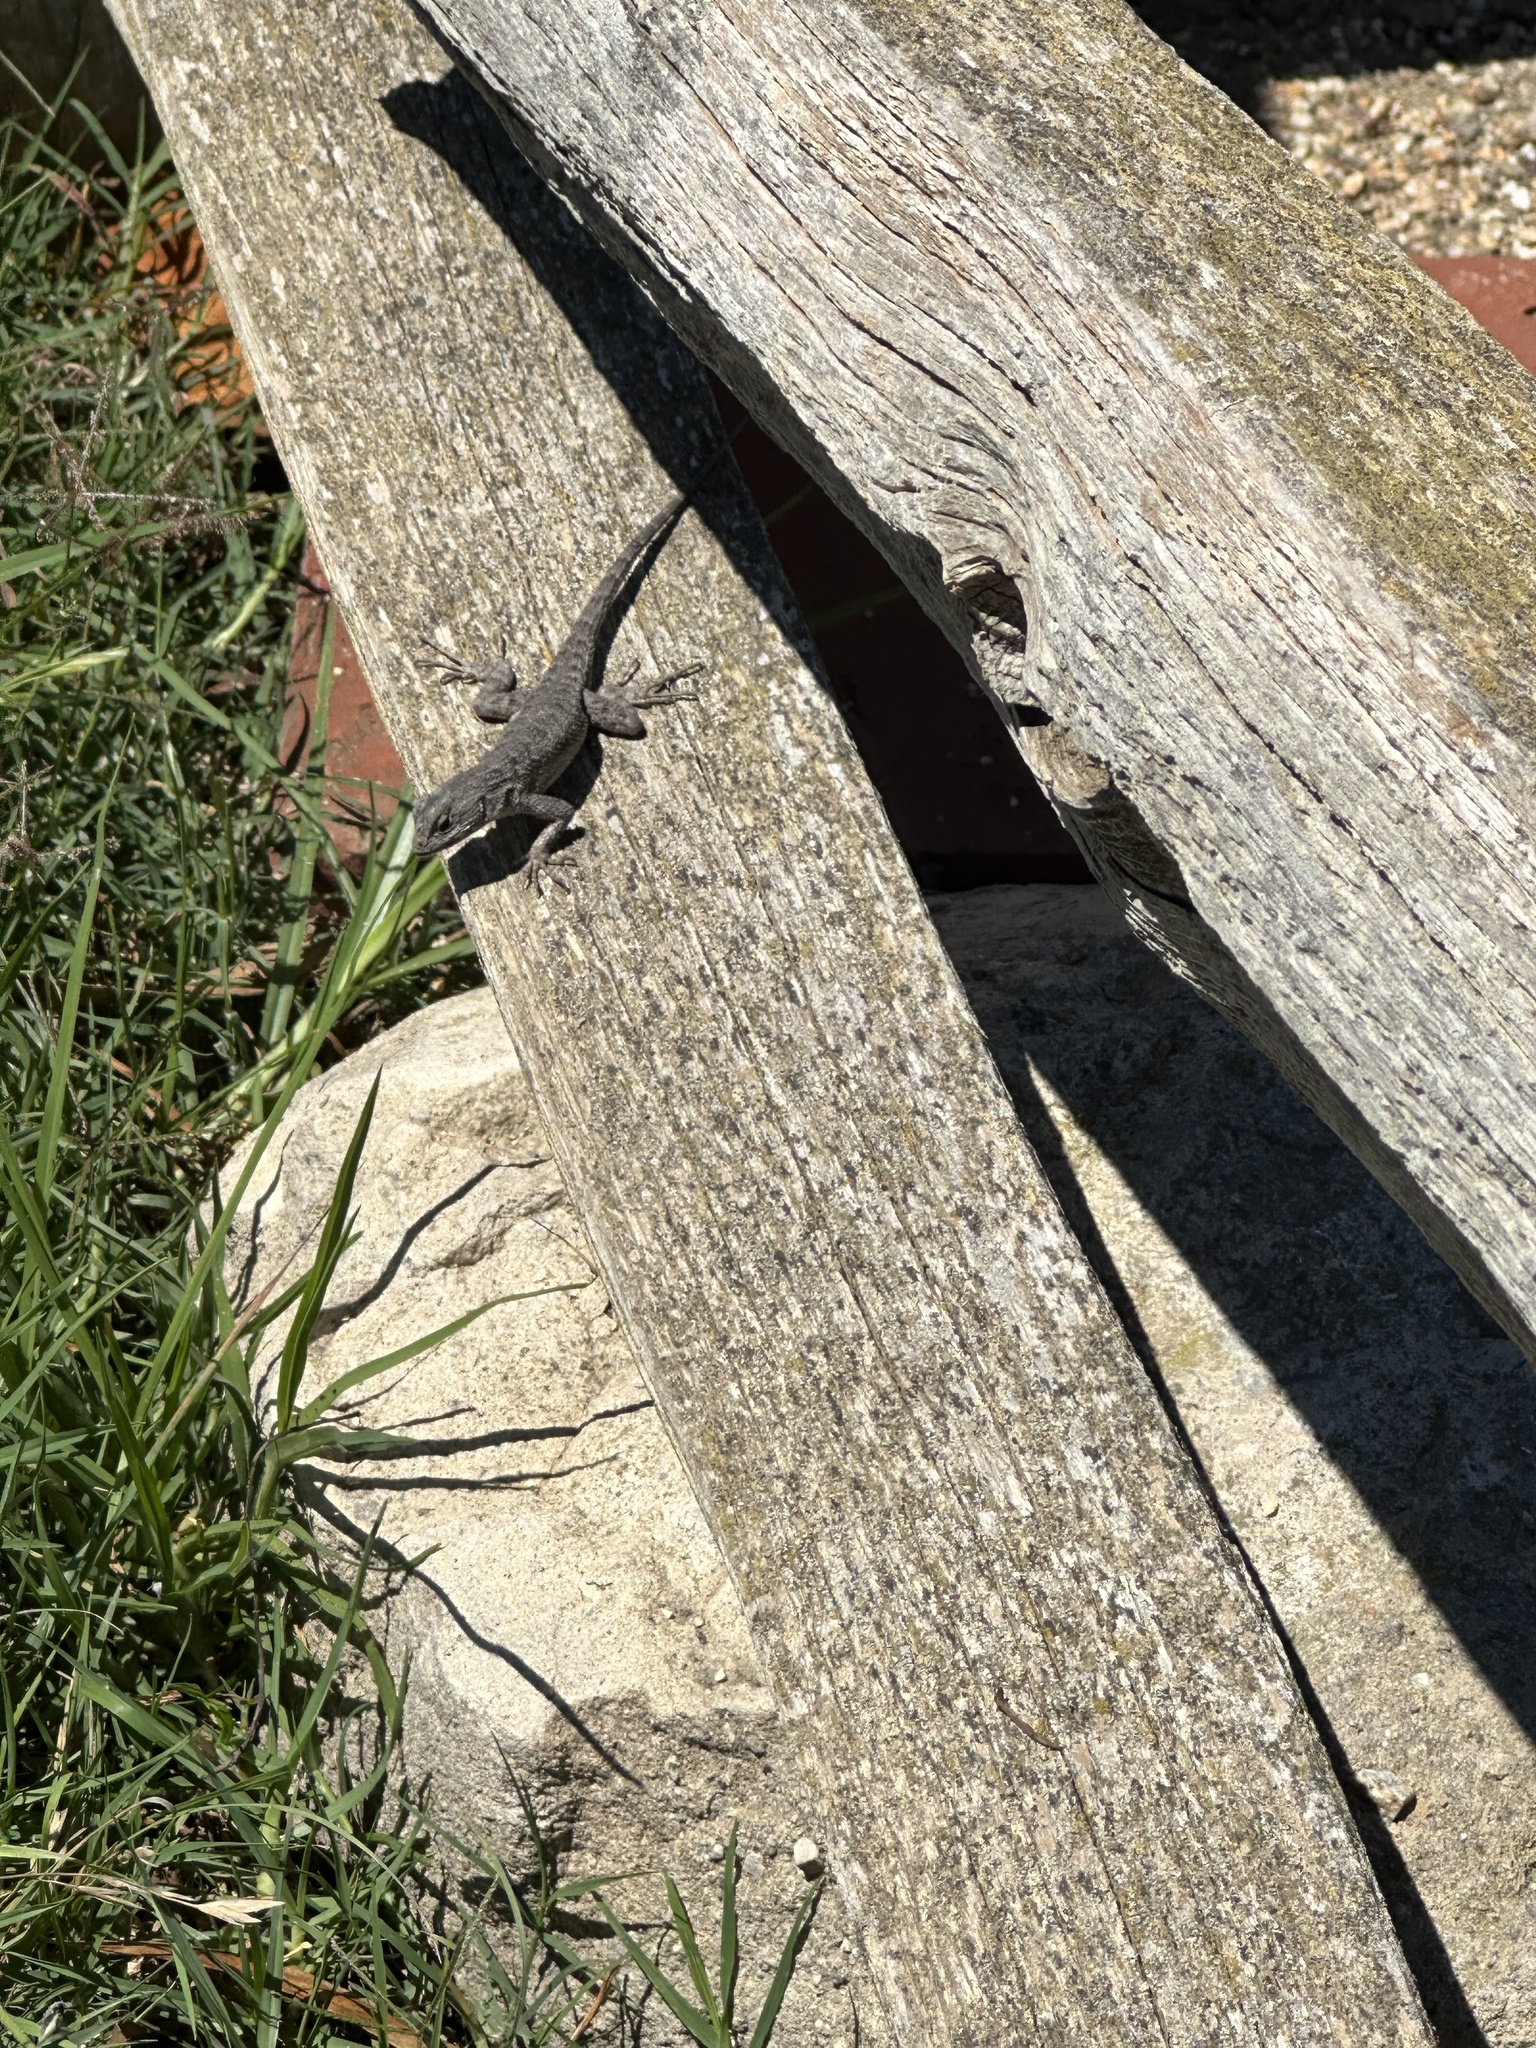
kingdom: Animalia
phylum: Chordata
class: Squamata
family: Phrynosomatidae
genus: Sceloporus
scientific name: Sceloporus occidentalis
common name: Western fence lizard
